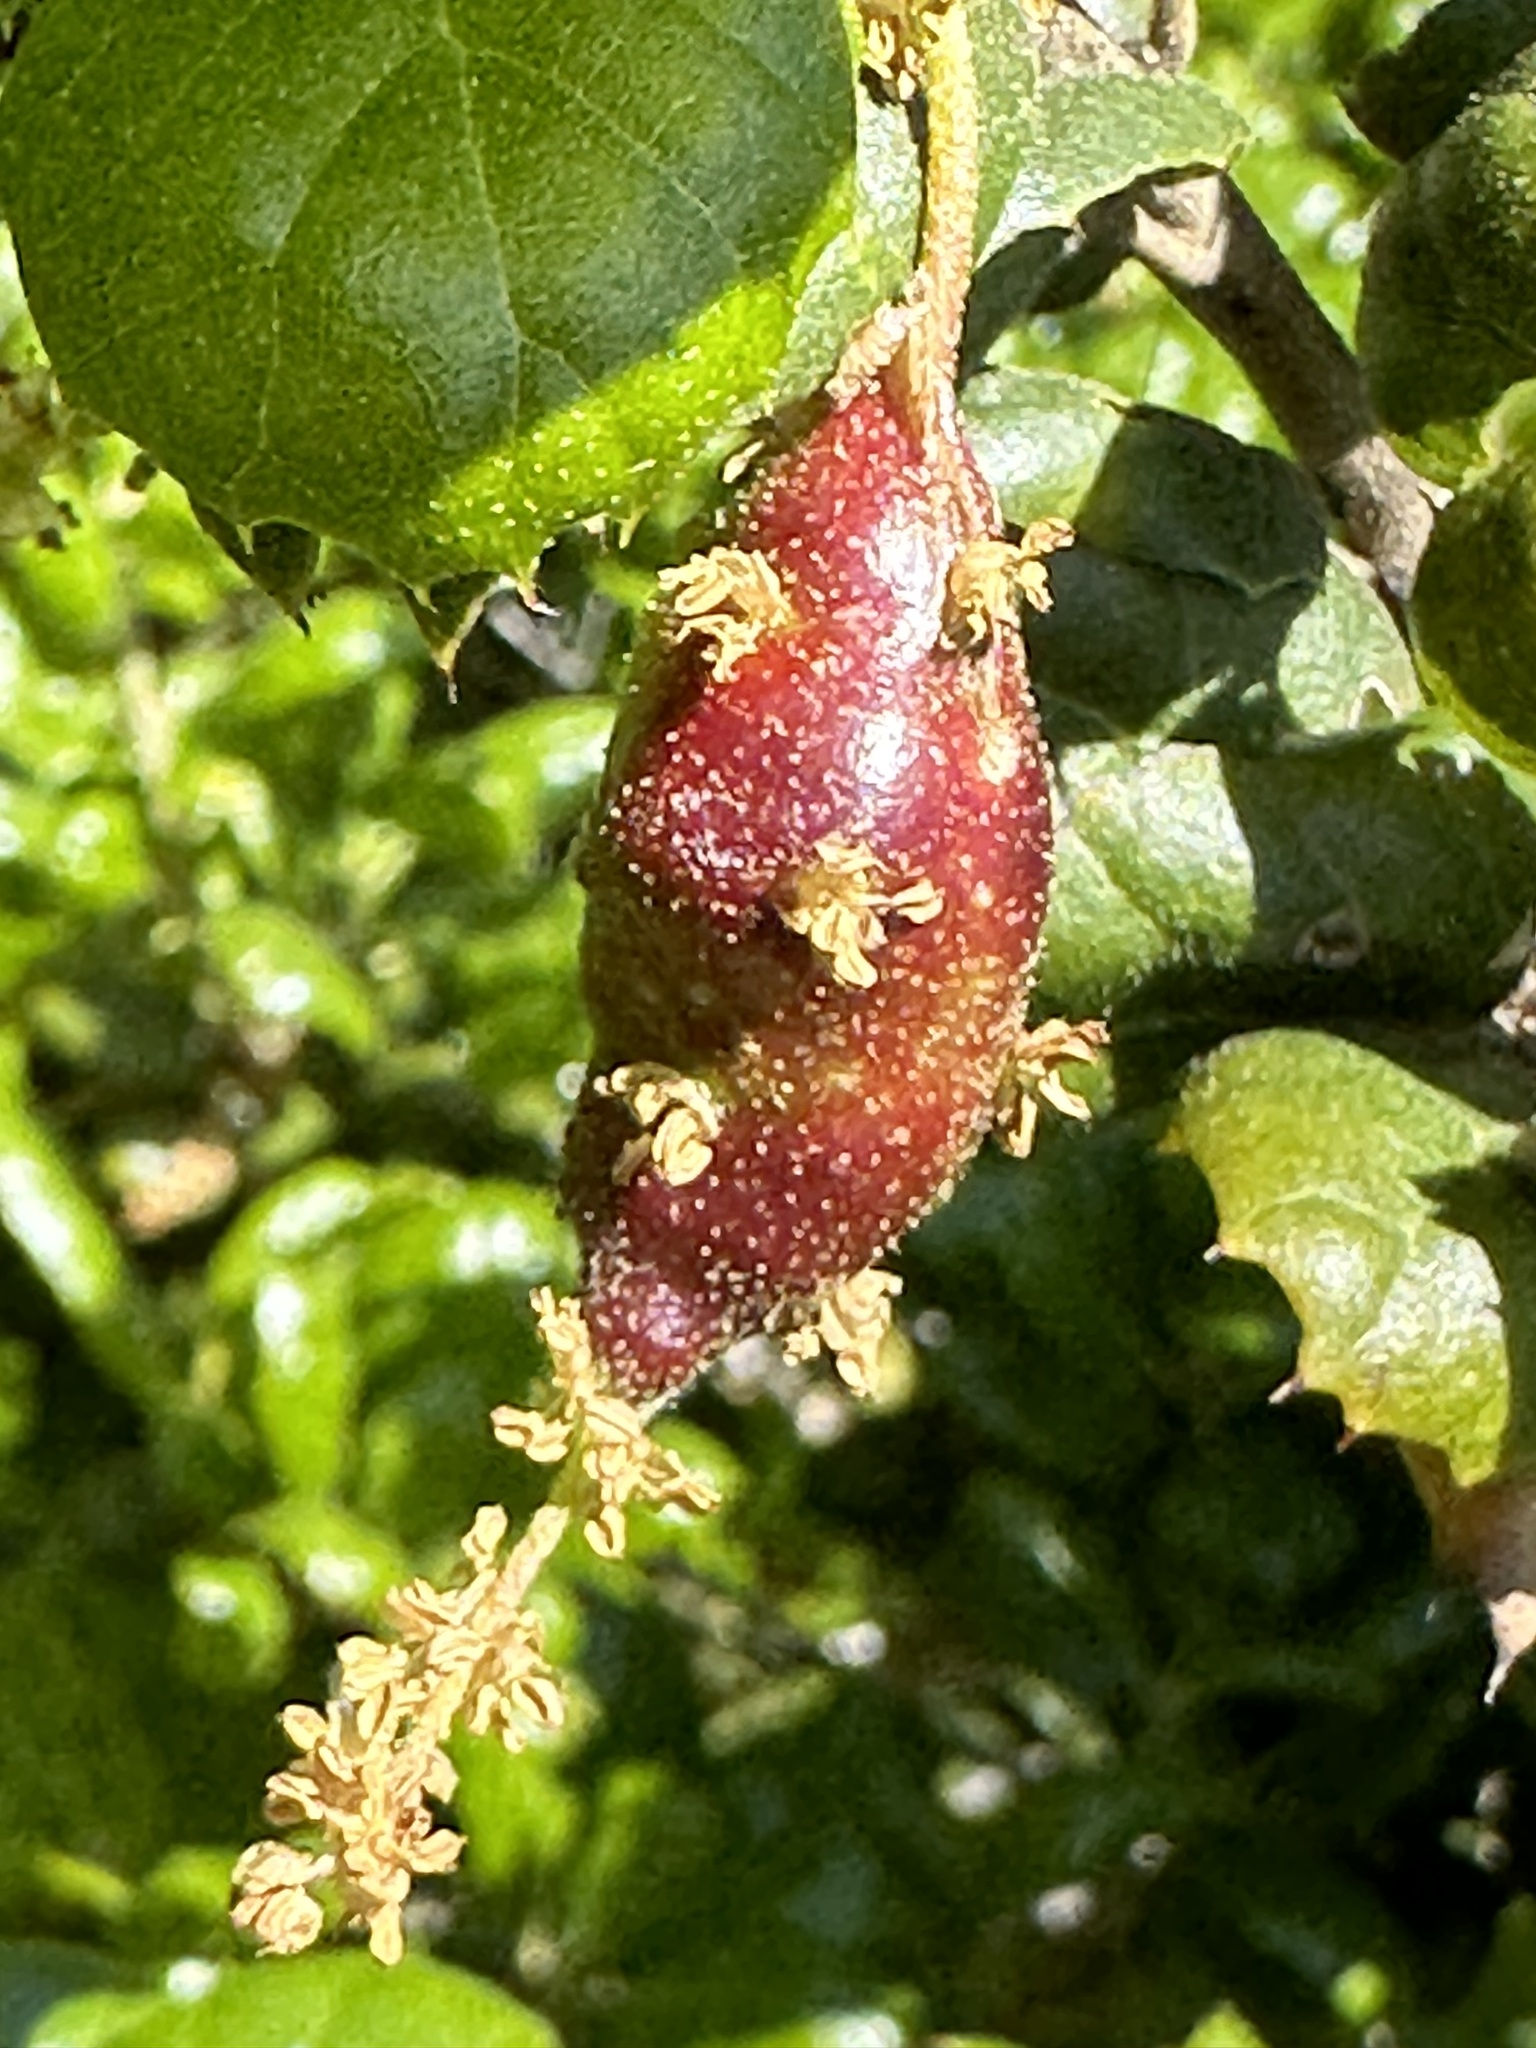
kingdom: Animalia
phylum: Arthropoda
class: Insecta
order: Hymenoptera
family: Cynipidae
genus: Callirhytis
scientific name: Callirhytis
